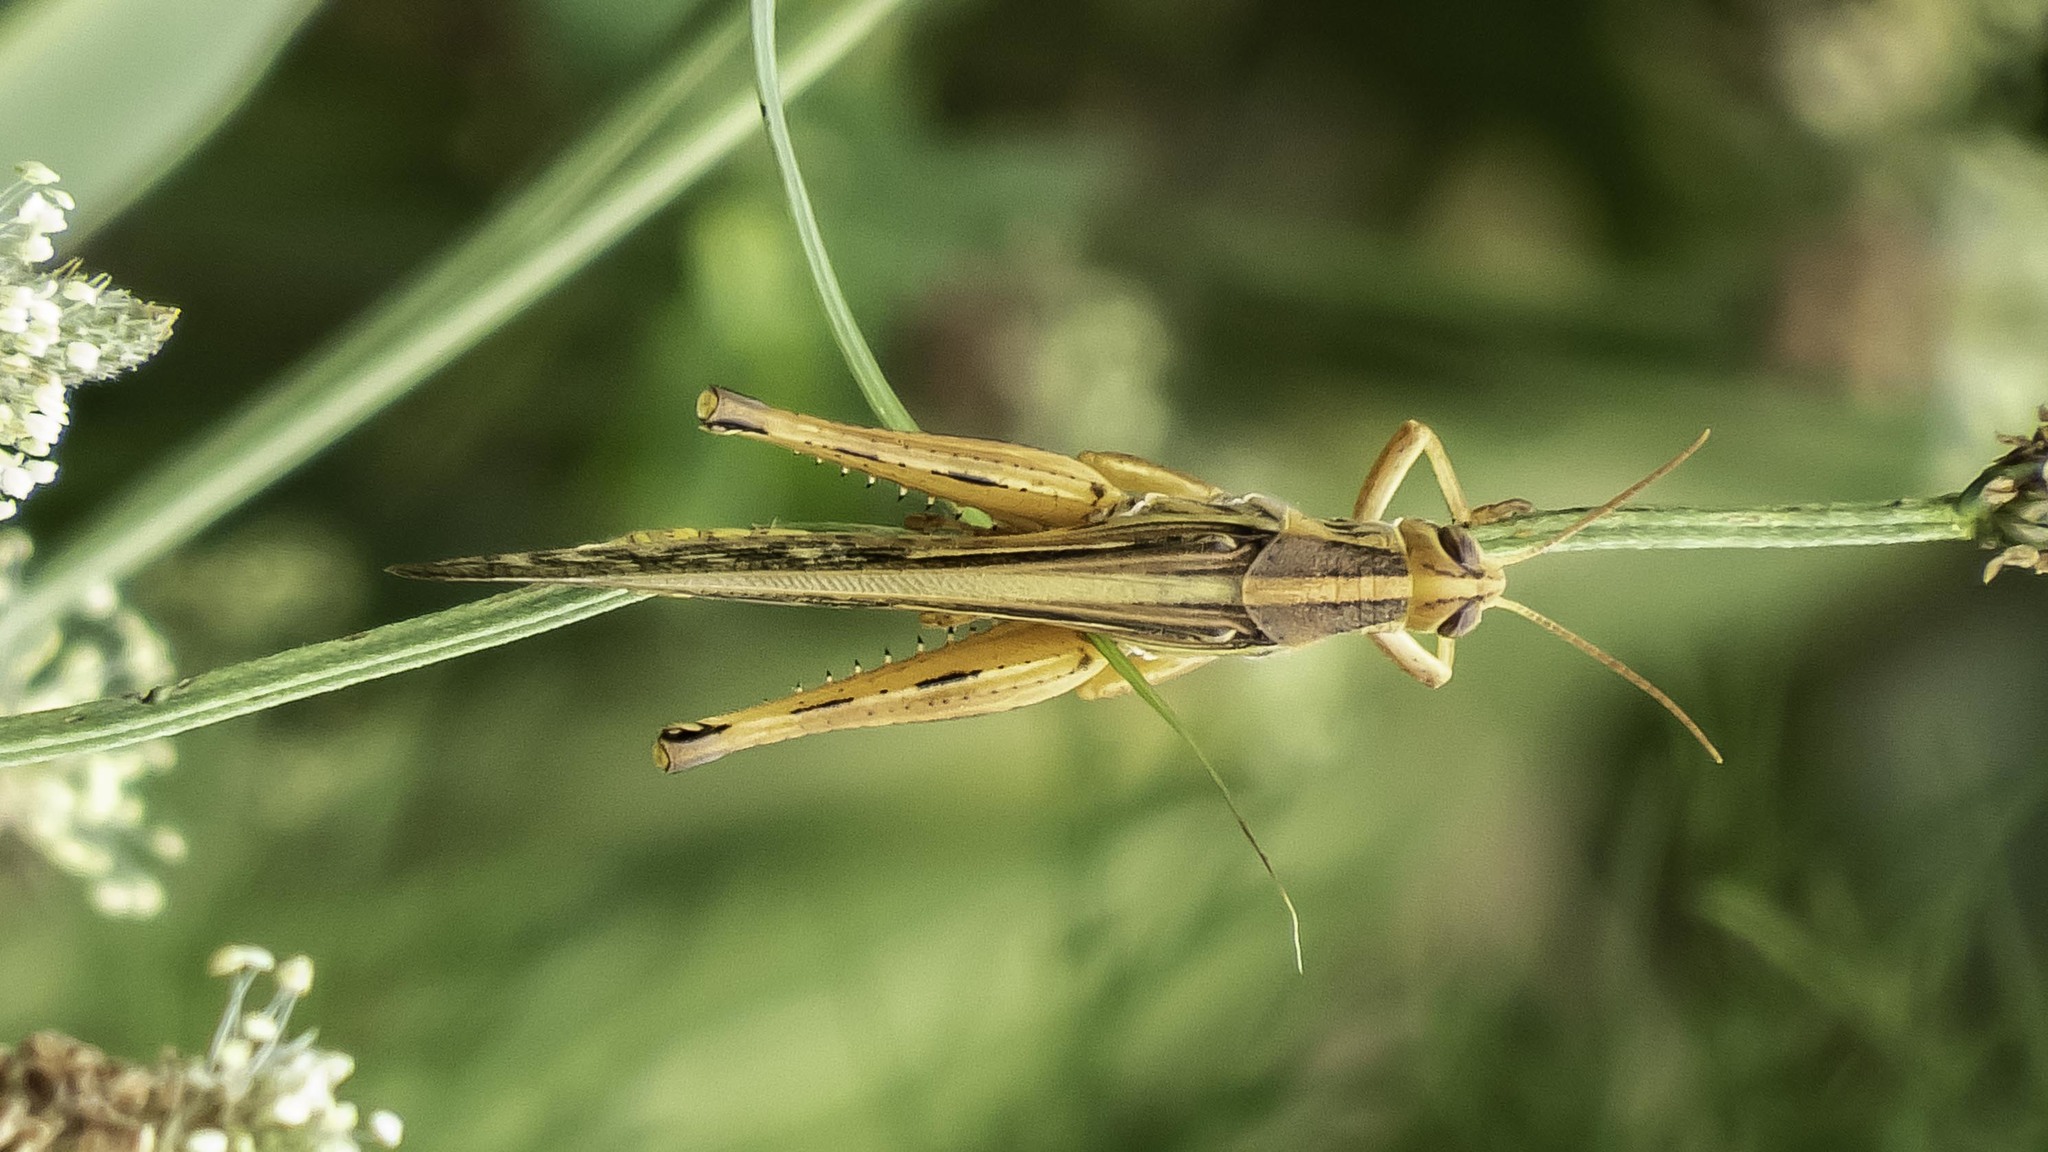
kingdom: Animalia
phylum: Arthropoda
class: Insecta
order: Orthoptera
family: Acrididae
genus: Schistocerca
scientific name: Schistocerca americana
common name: American bird locust
